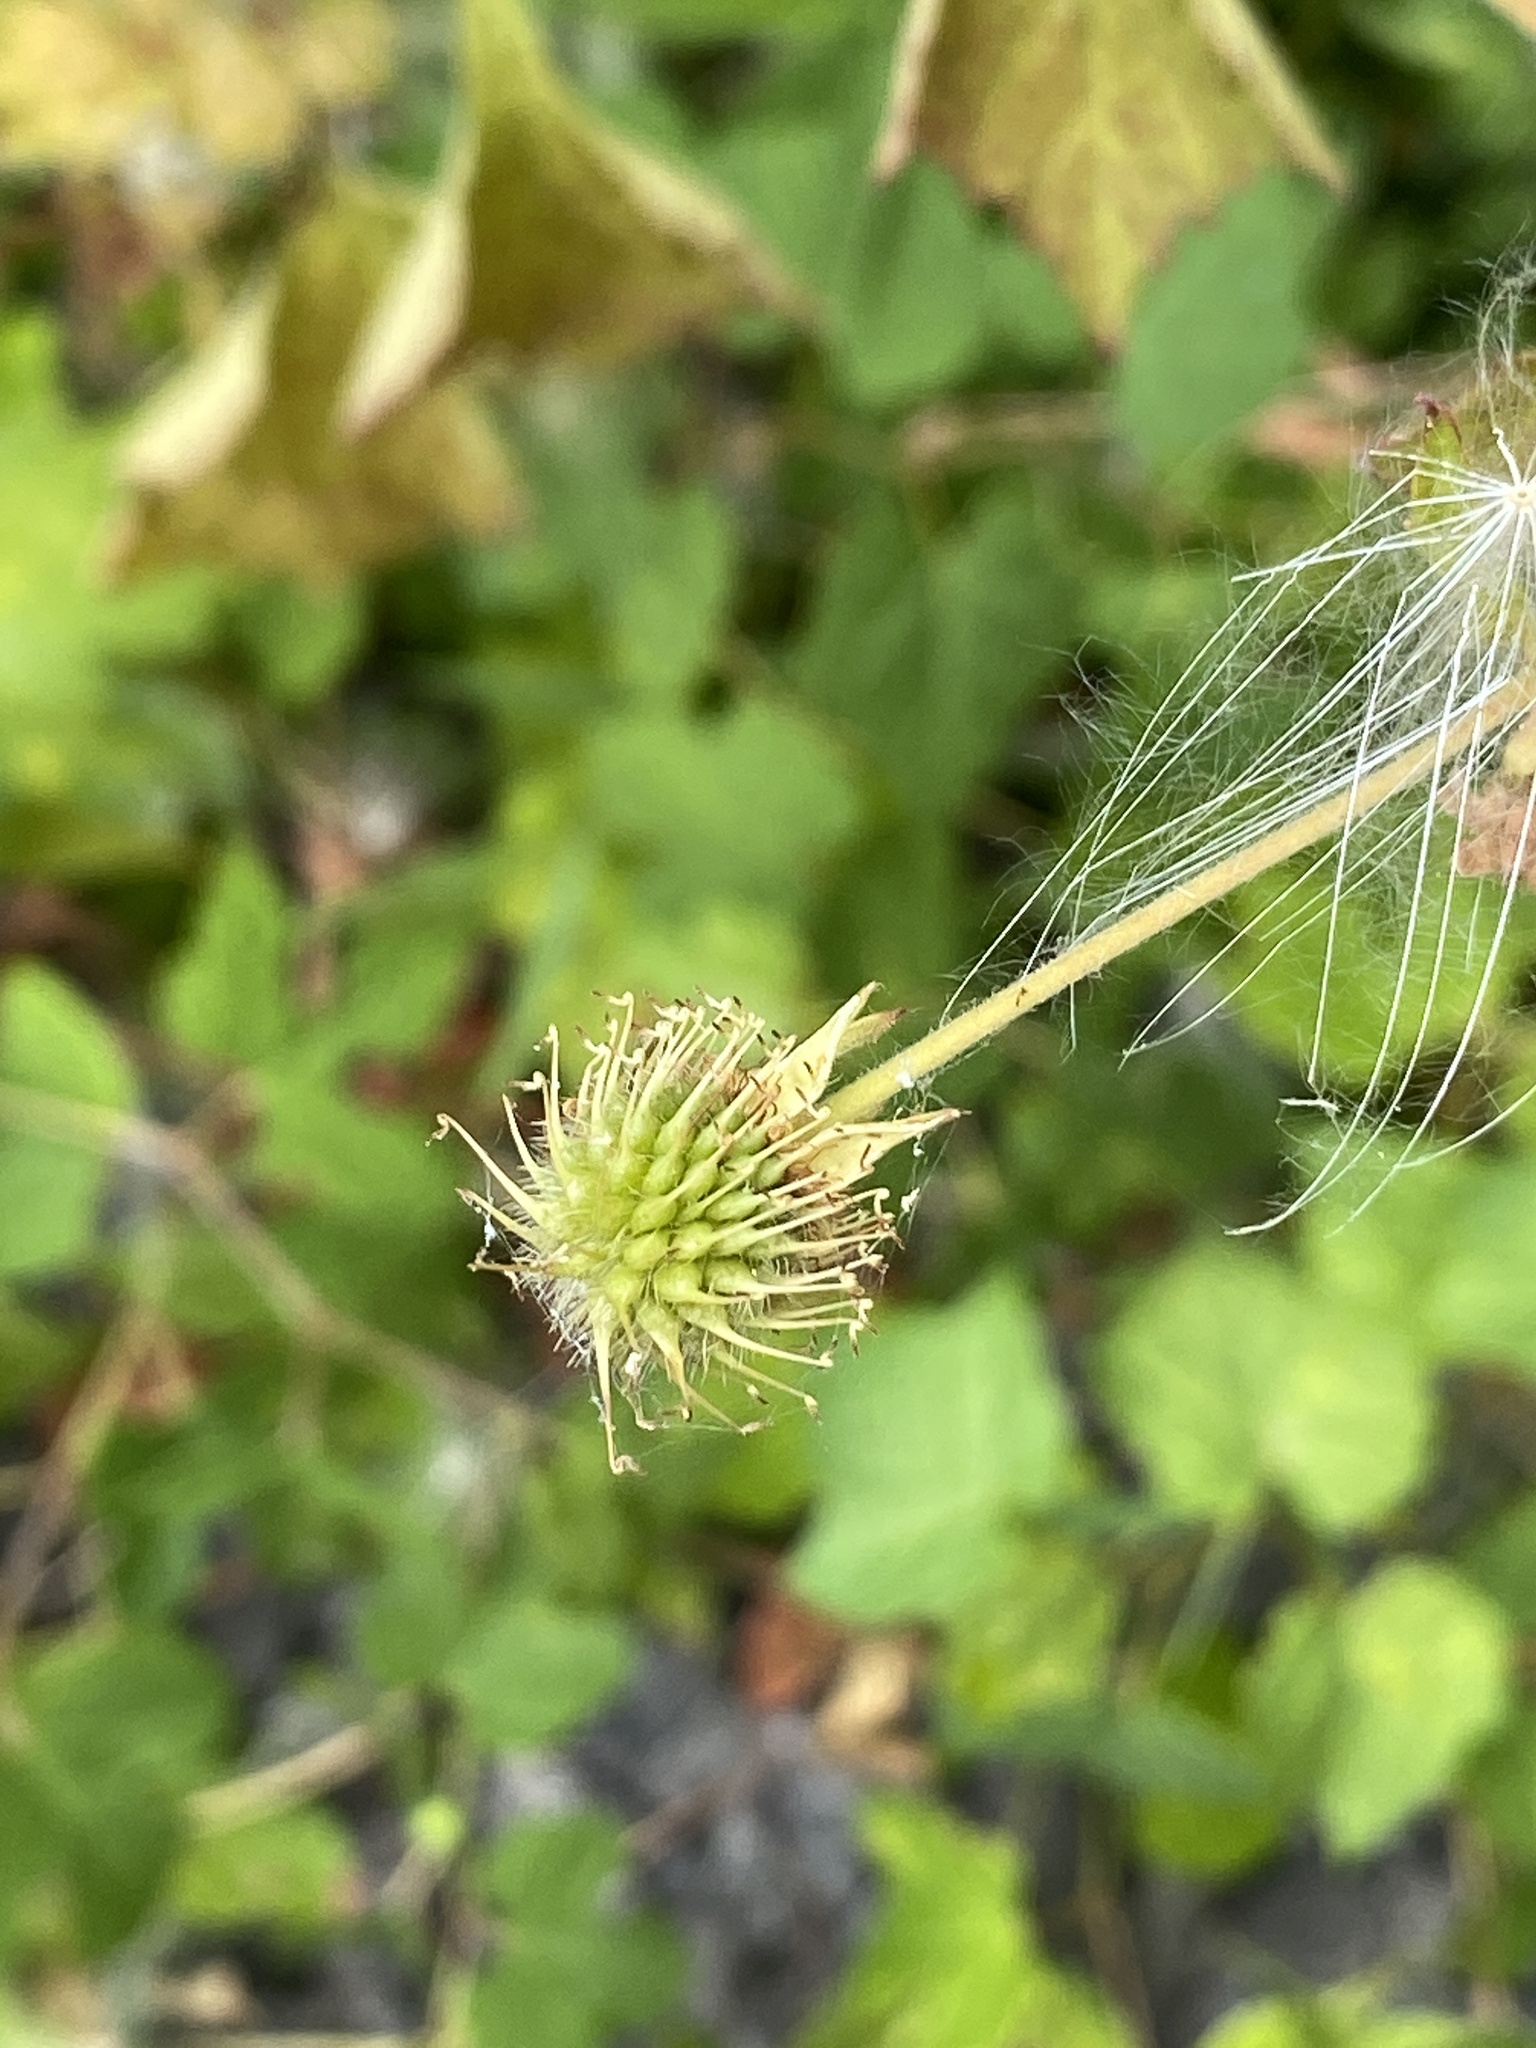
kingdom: Plantae
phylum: Tracheophyta
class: Magnoliopsida
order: Rosales
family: Rosaceae
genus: Geum
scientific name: Geum canadense
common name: White avens
